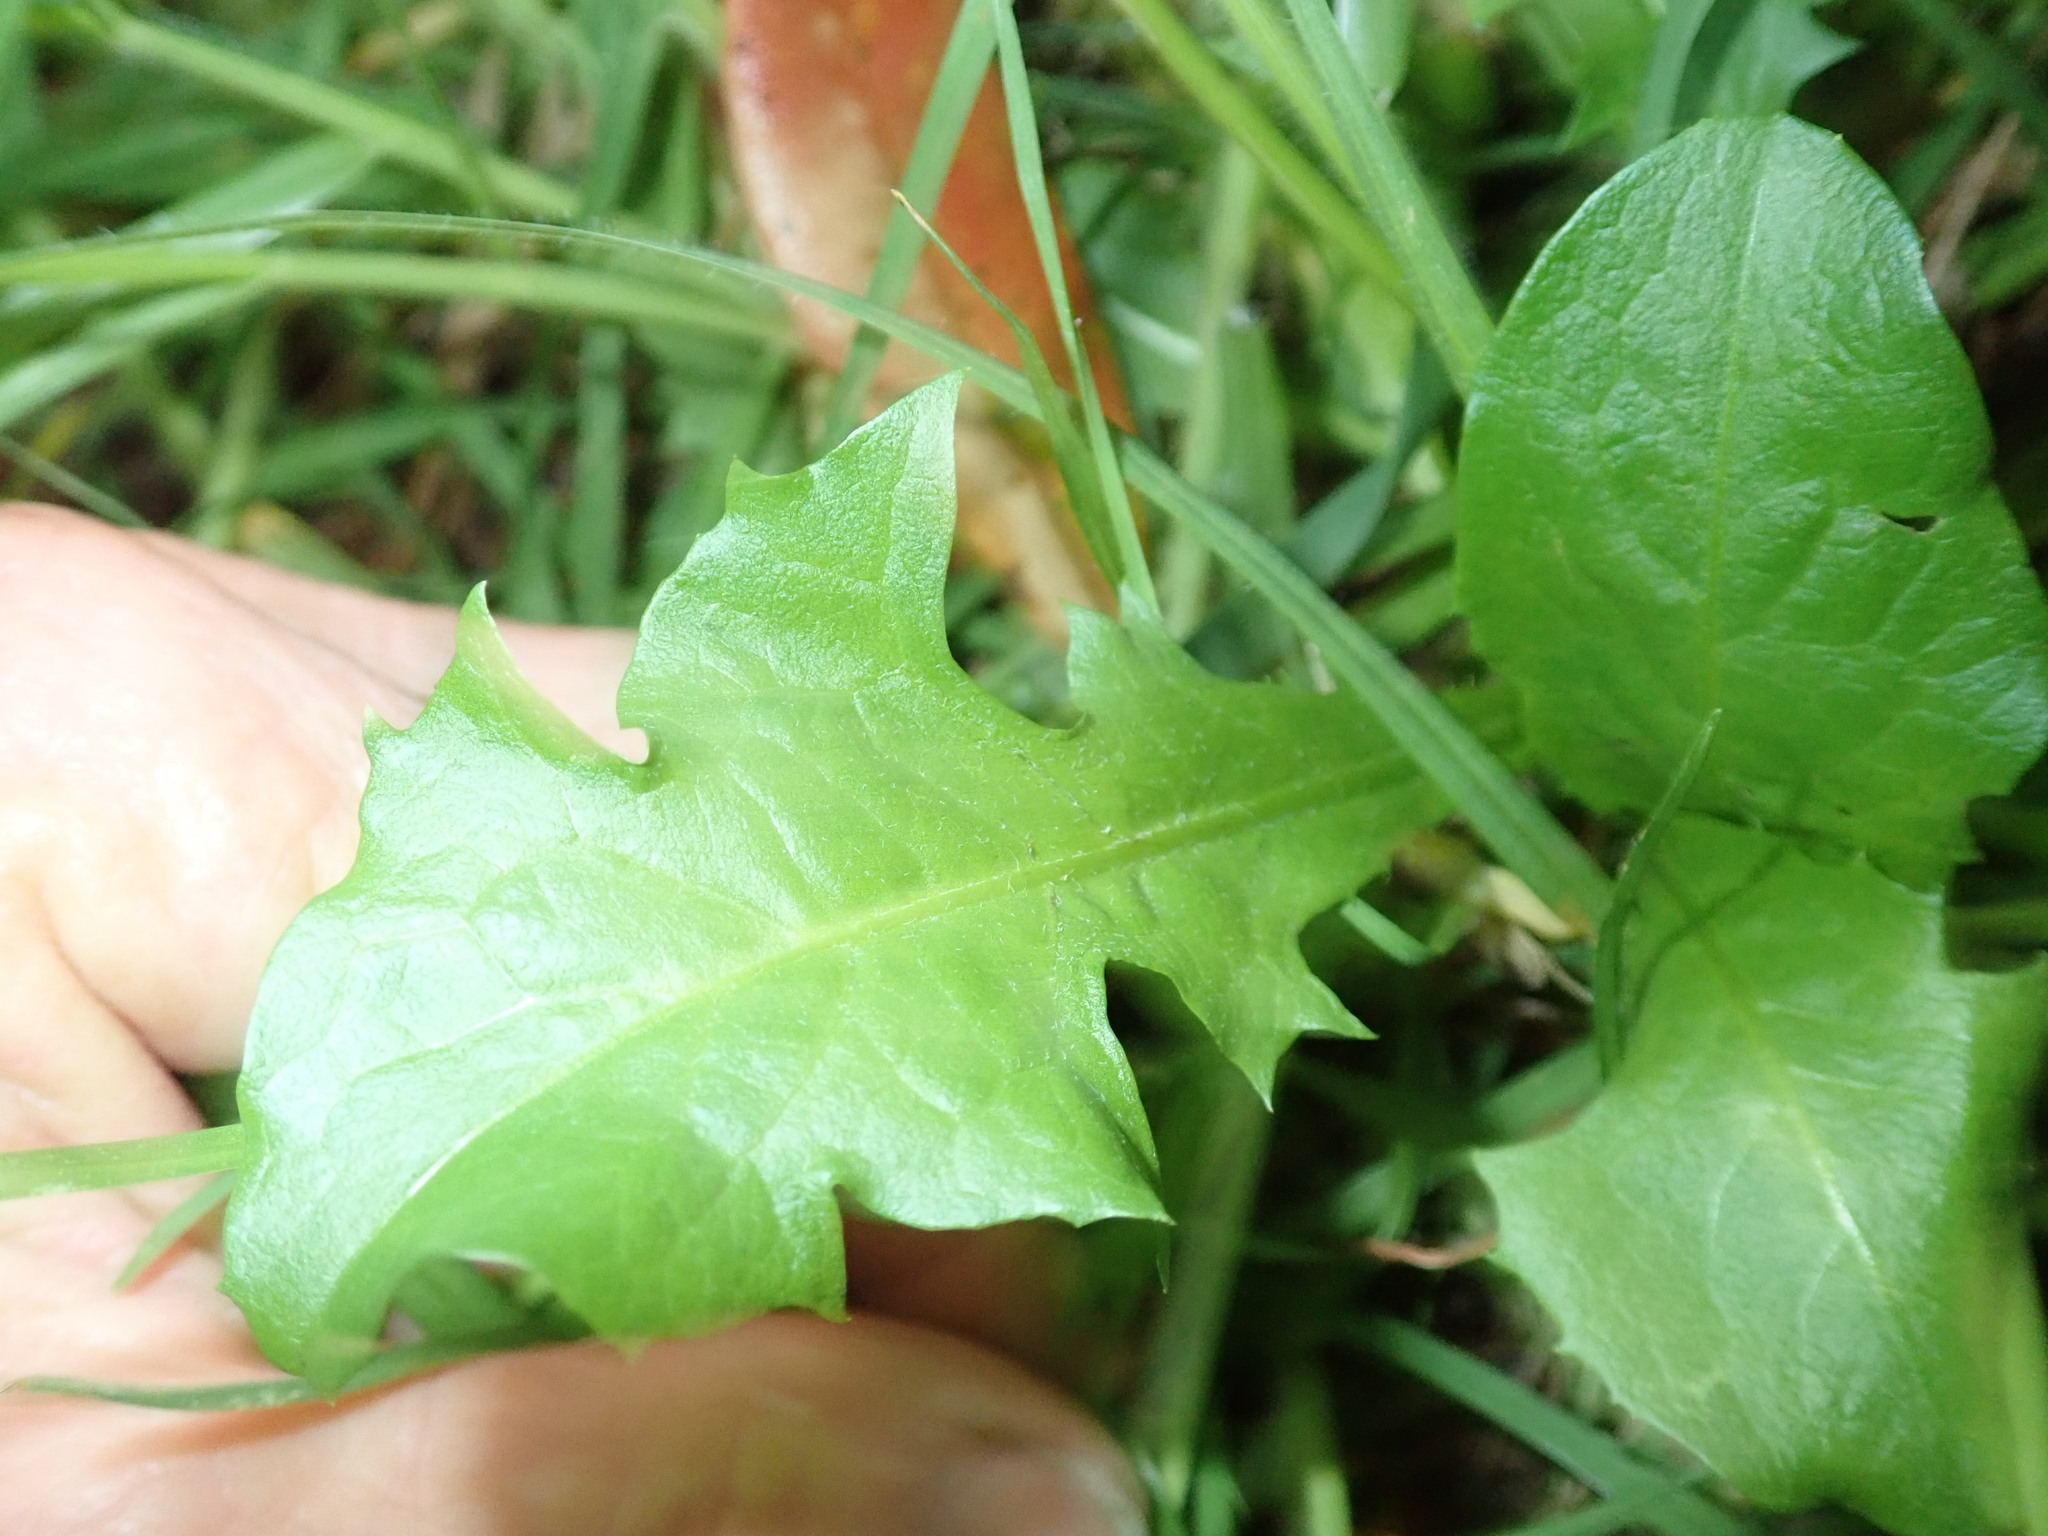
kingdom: Plantae
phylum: Tracheophyta
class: Magnoliopsida
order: Asterales
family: Asteraceae
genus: Taraxacum
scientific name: Taraxacum officinale
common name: Common dandelion
